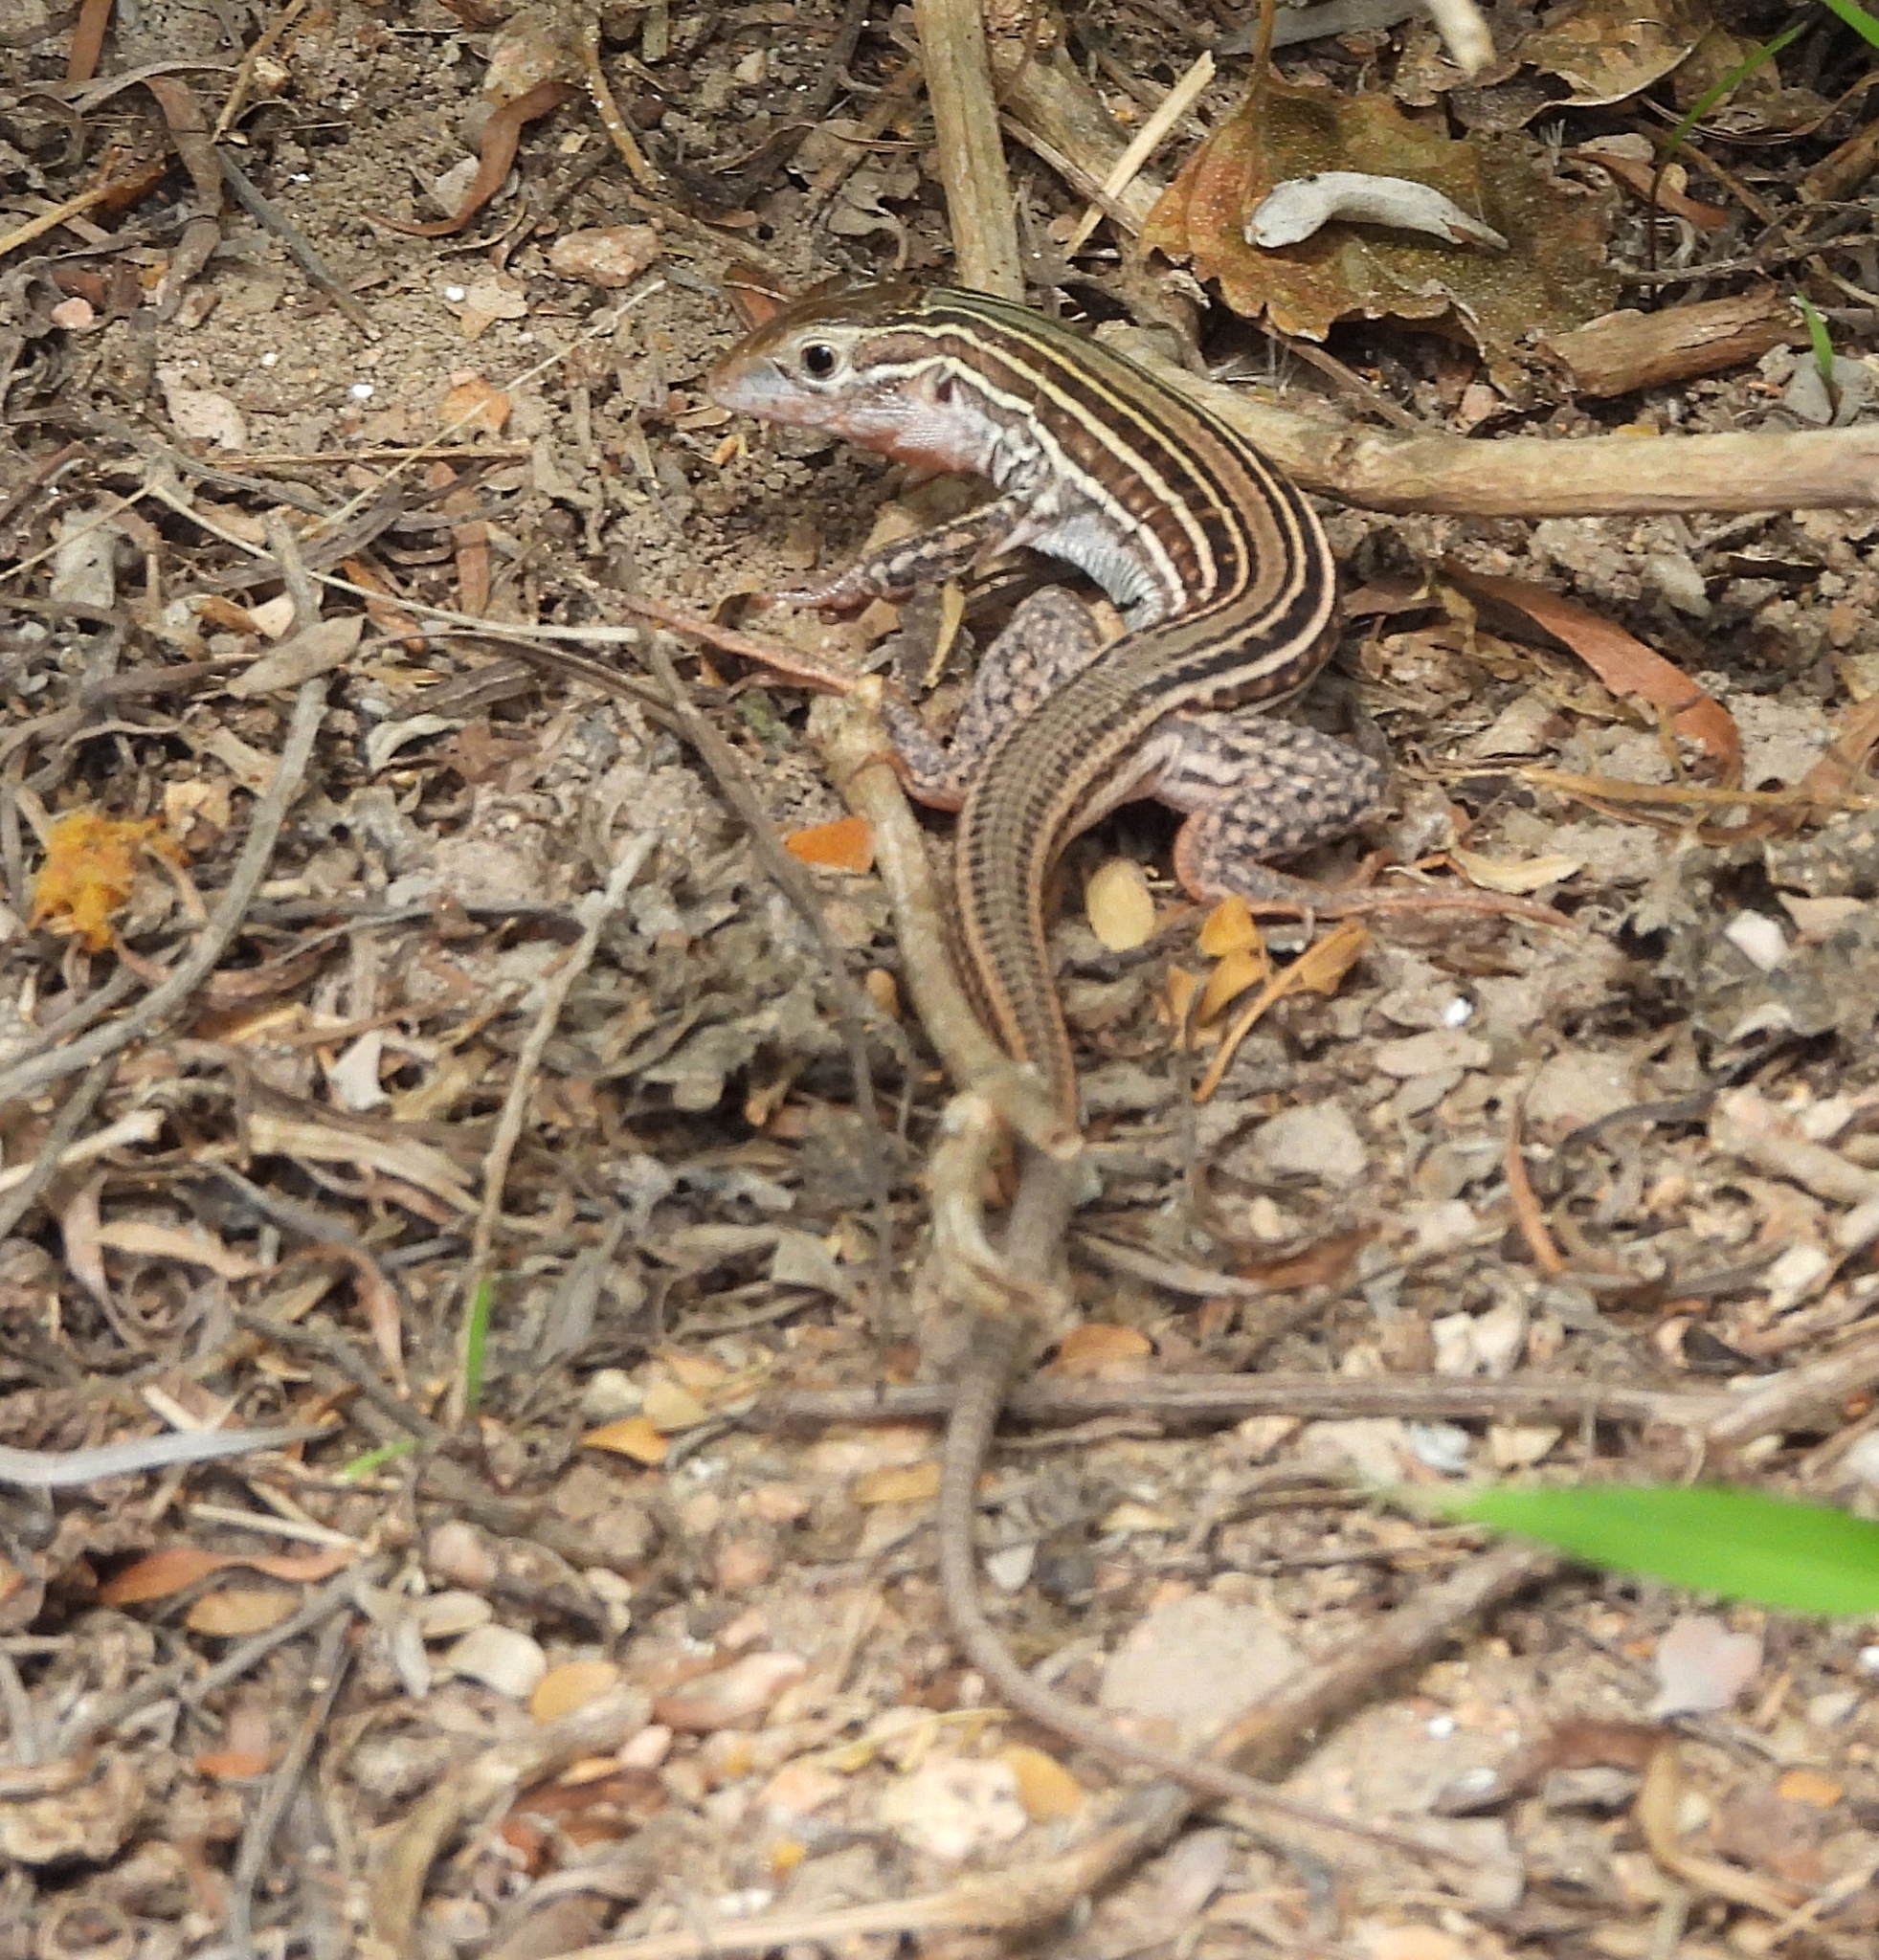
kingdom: Animalia
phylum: Chordata
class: Squamata
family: Teiidae
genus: Aspidoscelis
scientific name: Aspidoscelis gularis
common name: Eastern spotted whiptail
